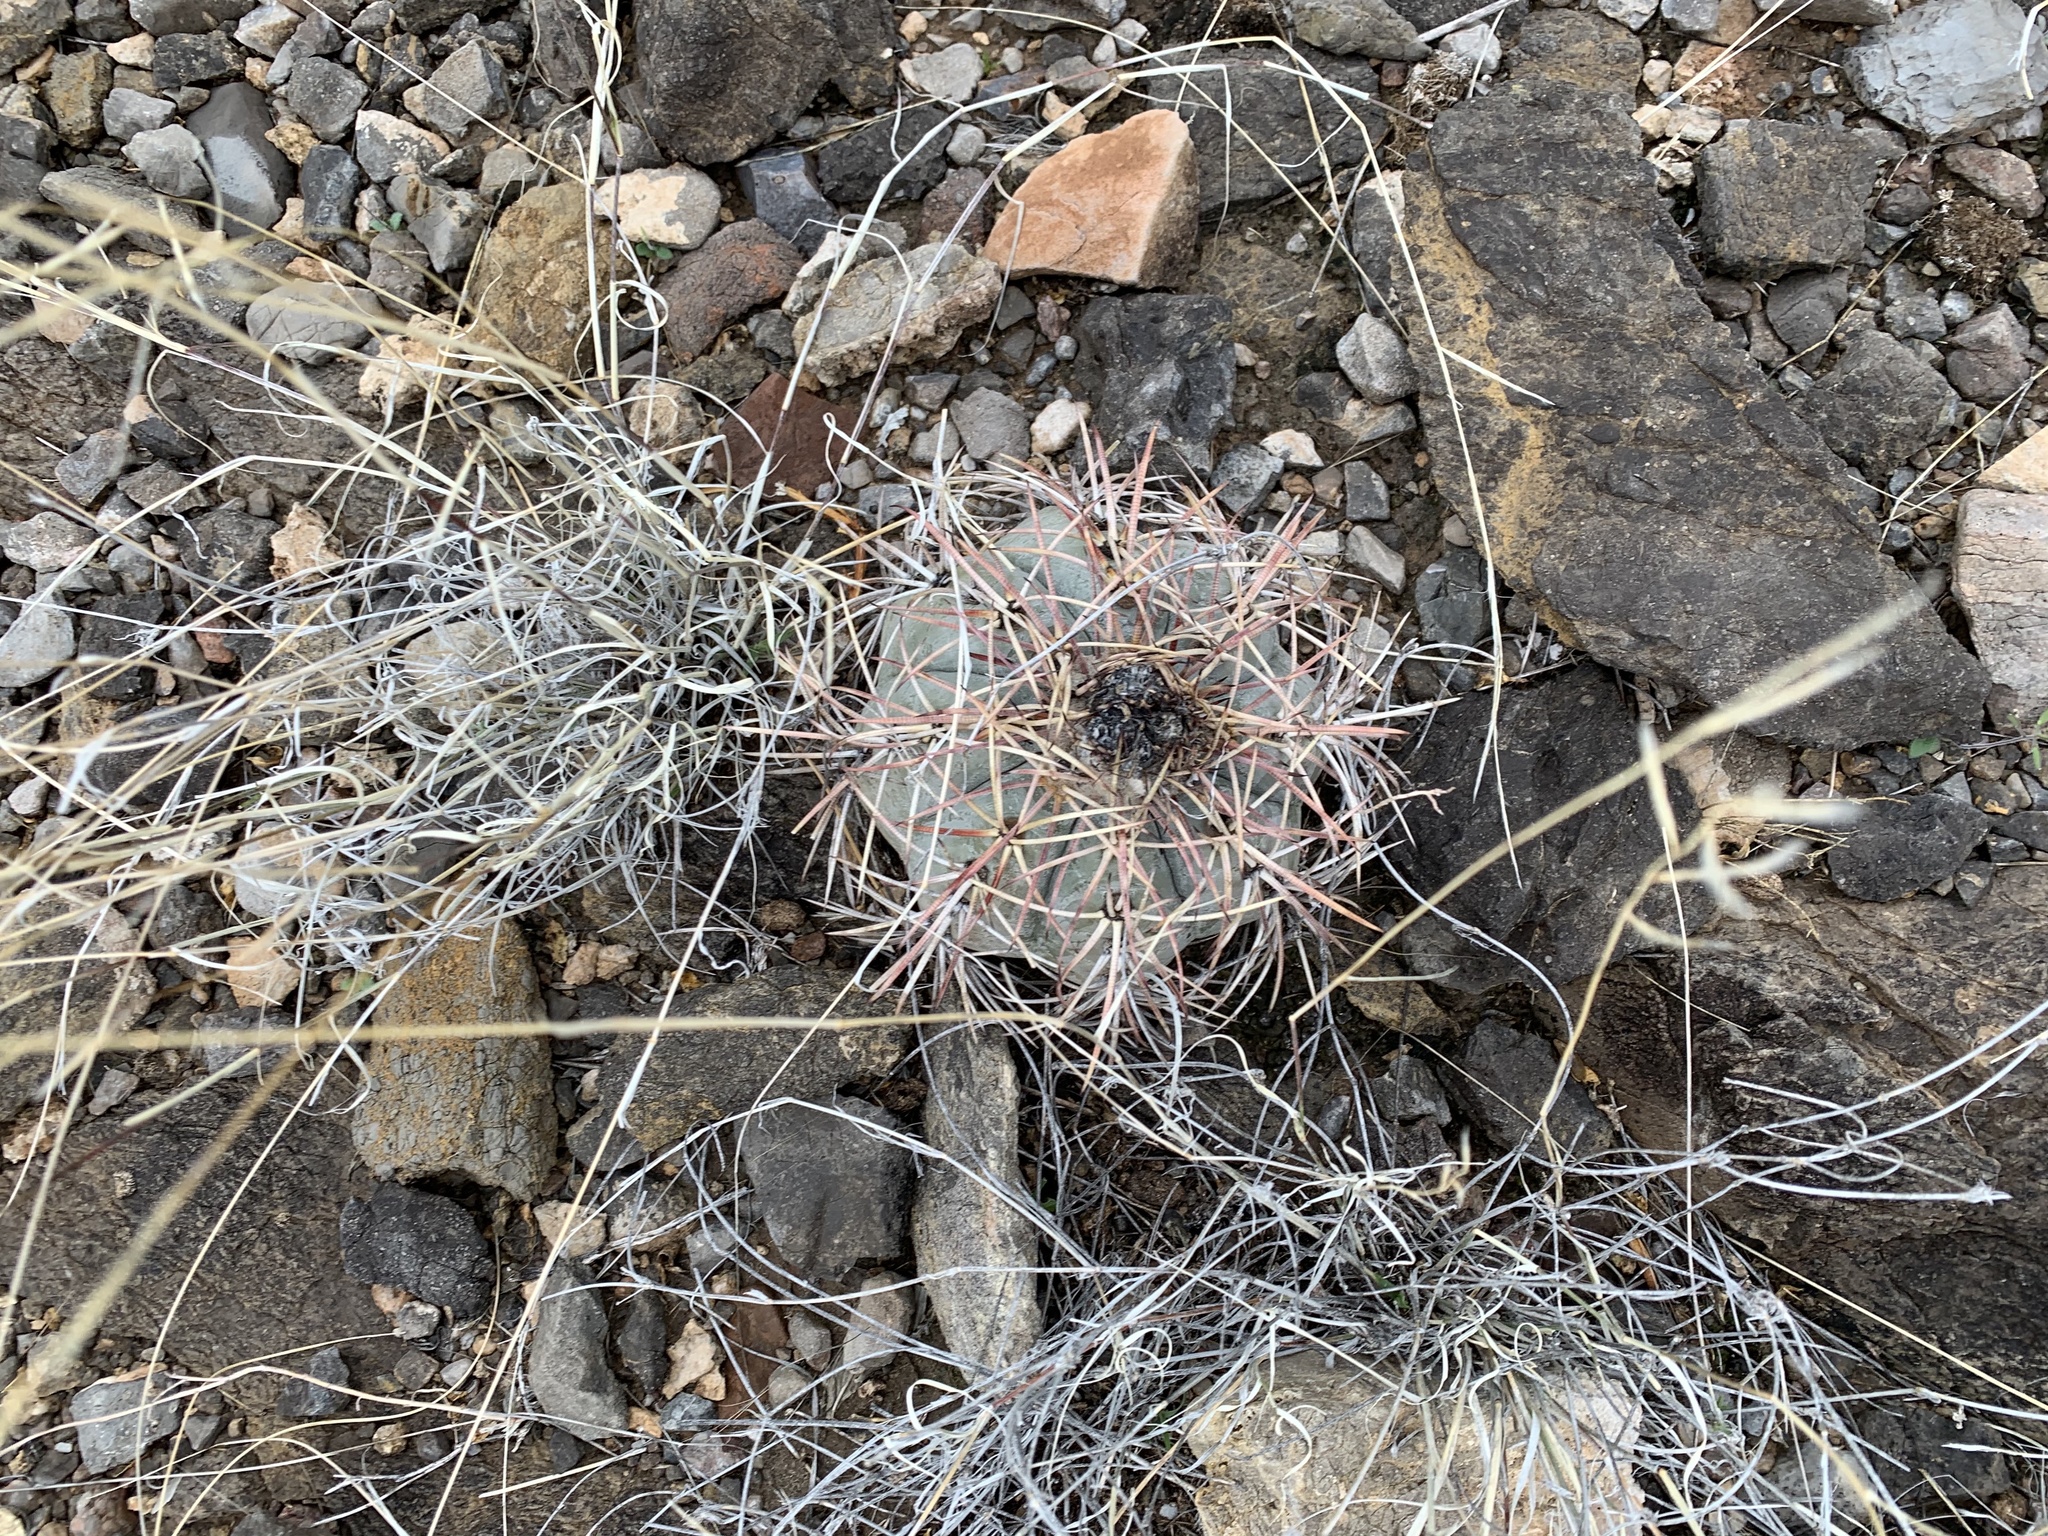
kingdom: Plantae
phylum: Tracheophyta
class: Magnoliopsida
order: Caryophyllales
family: Cactaceae
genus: Echinocactus
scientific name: Echinocactus horizonthalonius
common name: Devilshead
